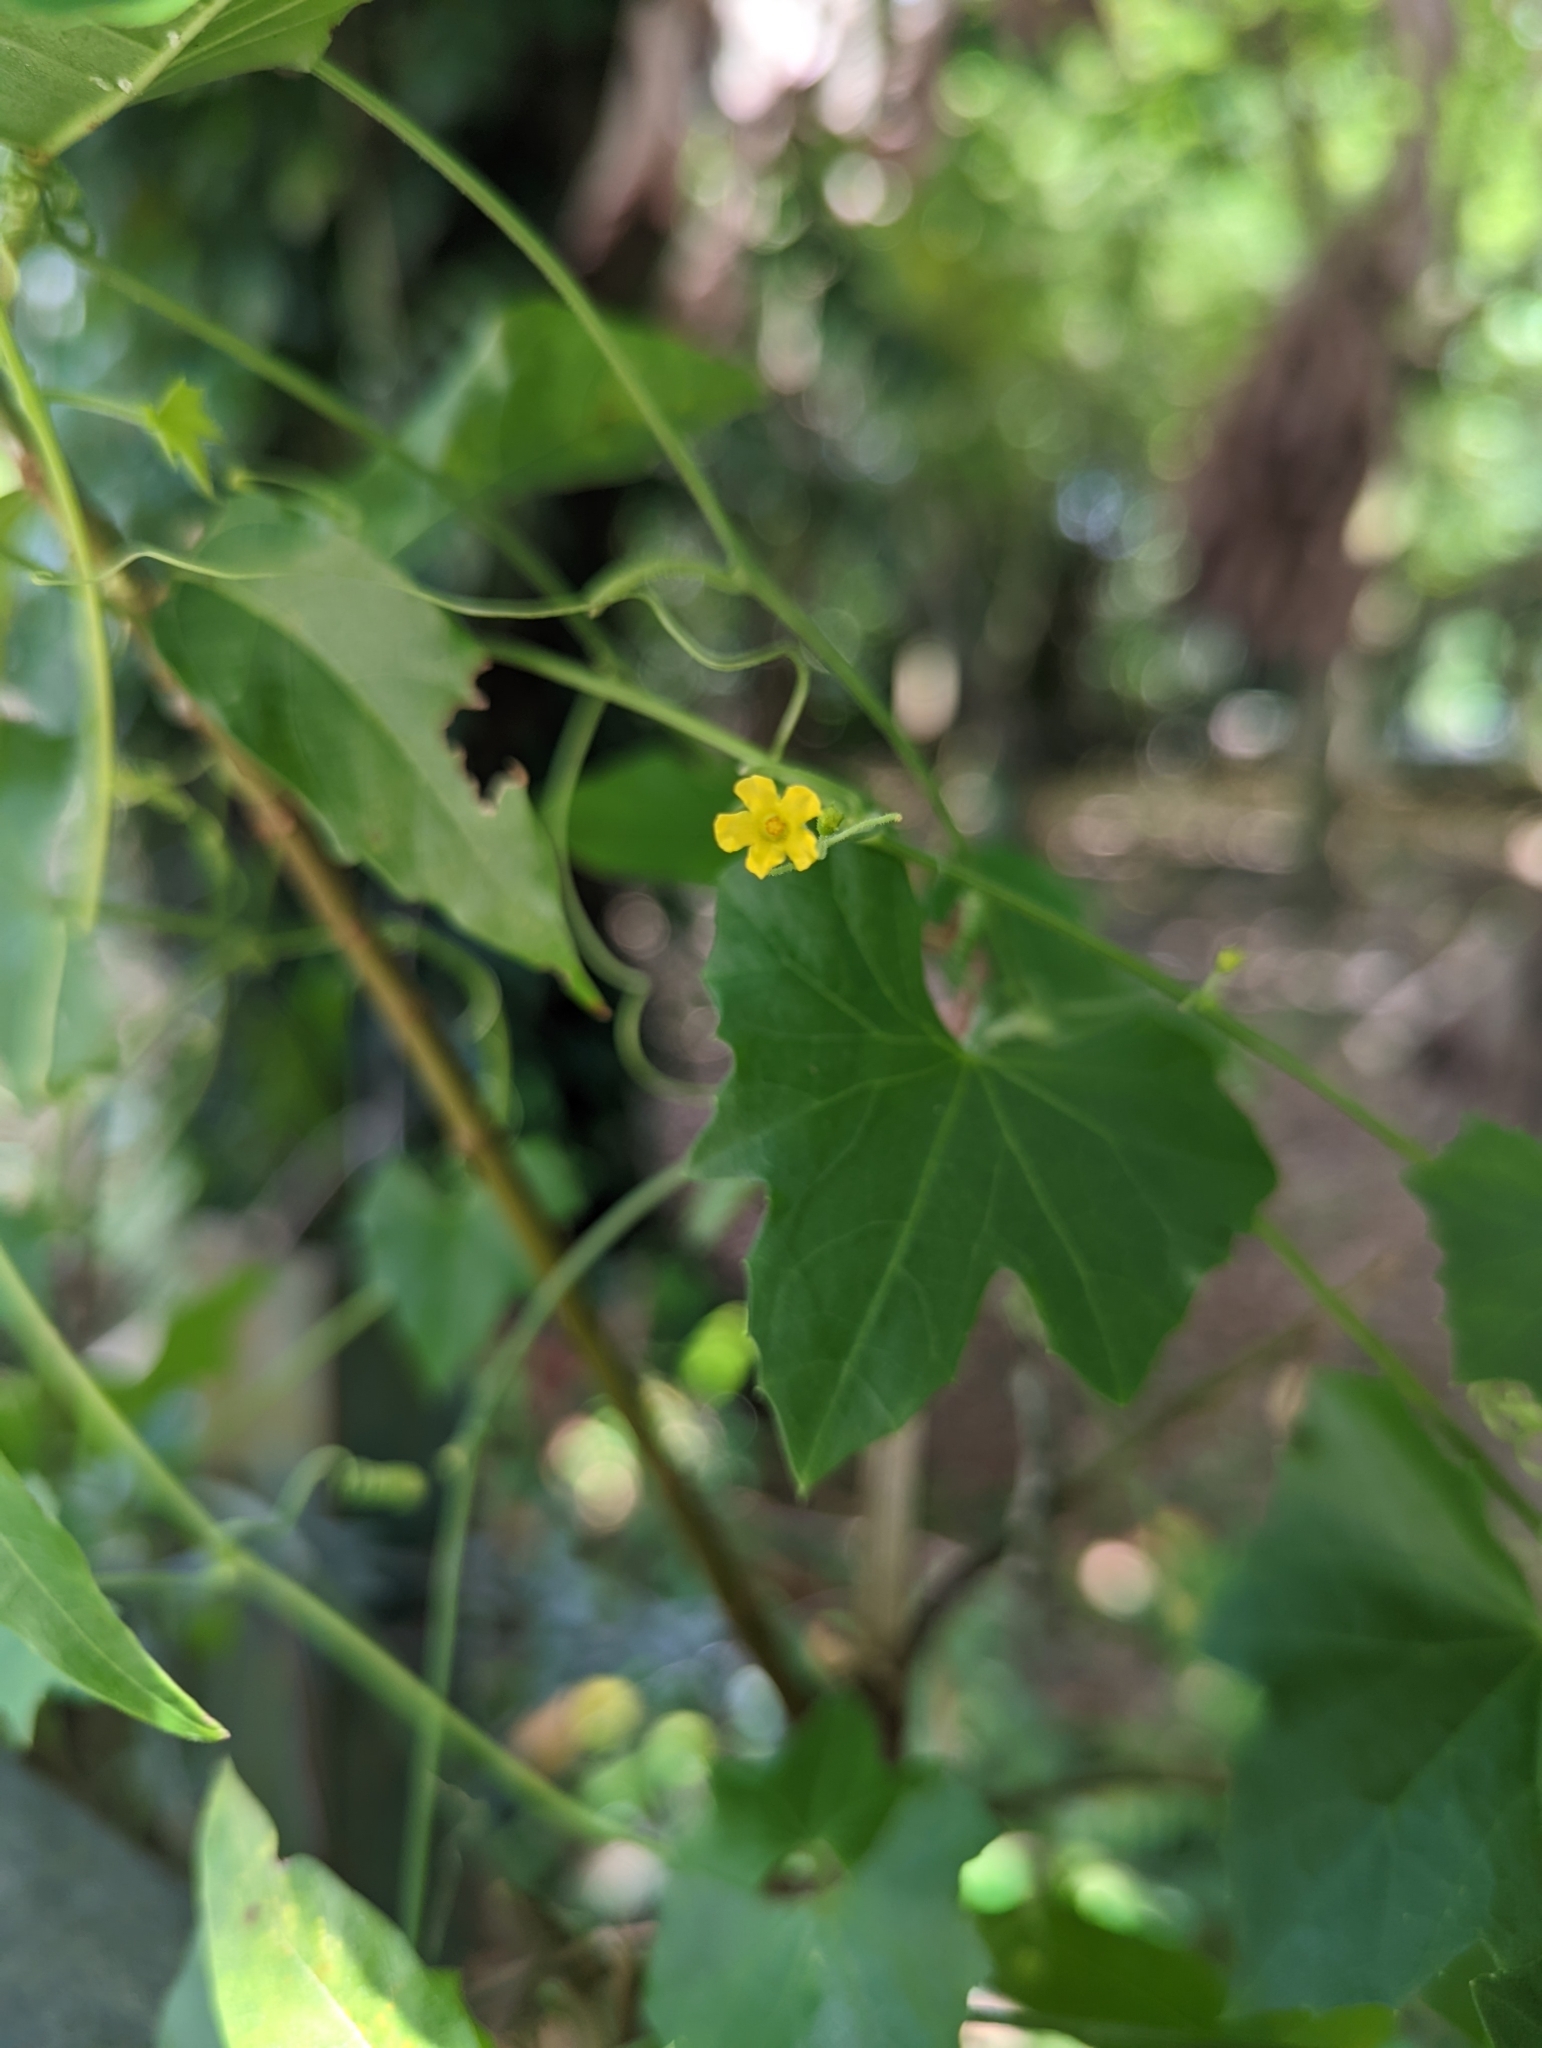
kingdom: Plantae
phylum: Tracheophyta
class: Magnoliopsida
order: Cucurbitales
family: Cucurbitaceae
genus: Melothria
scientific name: Melothria pendula
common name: Creeping-cucumber
